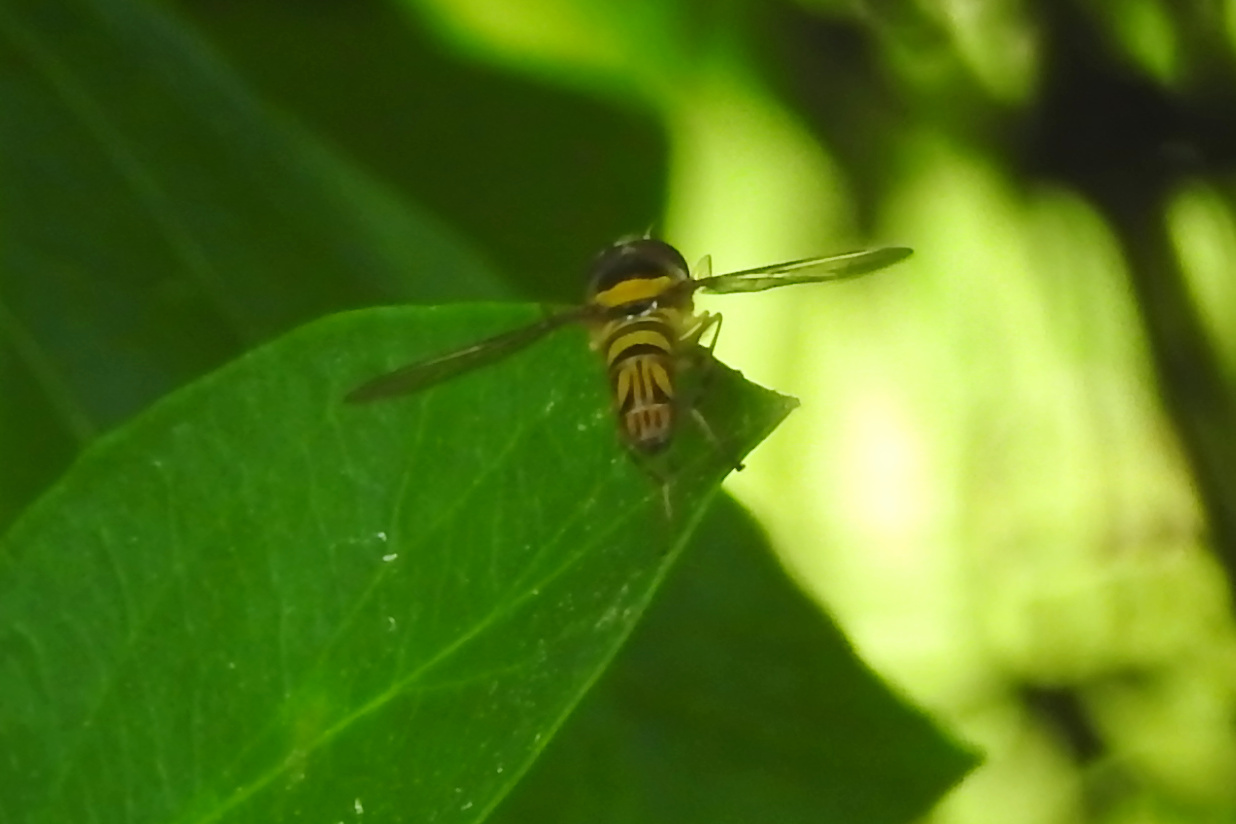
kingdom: Animalia
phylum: Arthropoda
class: Insecta
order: Diptera
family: Syrphidae
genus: Allograpta
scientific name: Allograpta obliqua
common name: Common oblique syrphid
